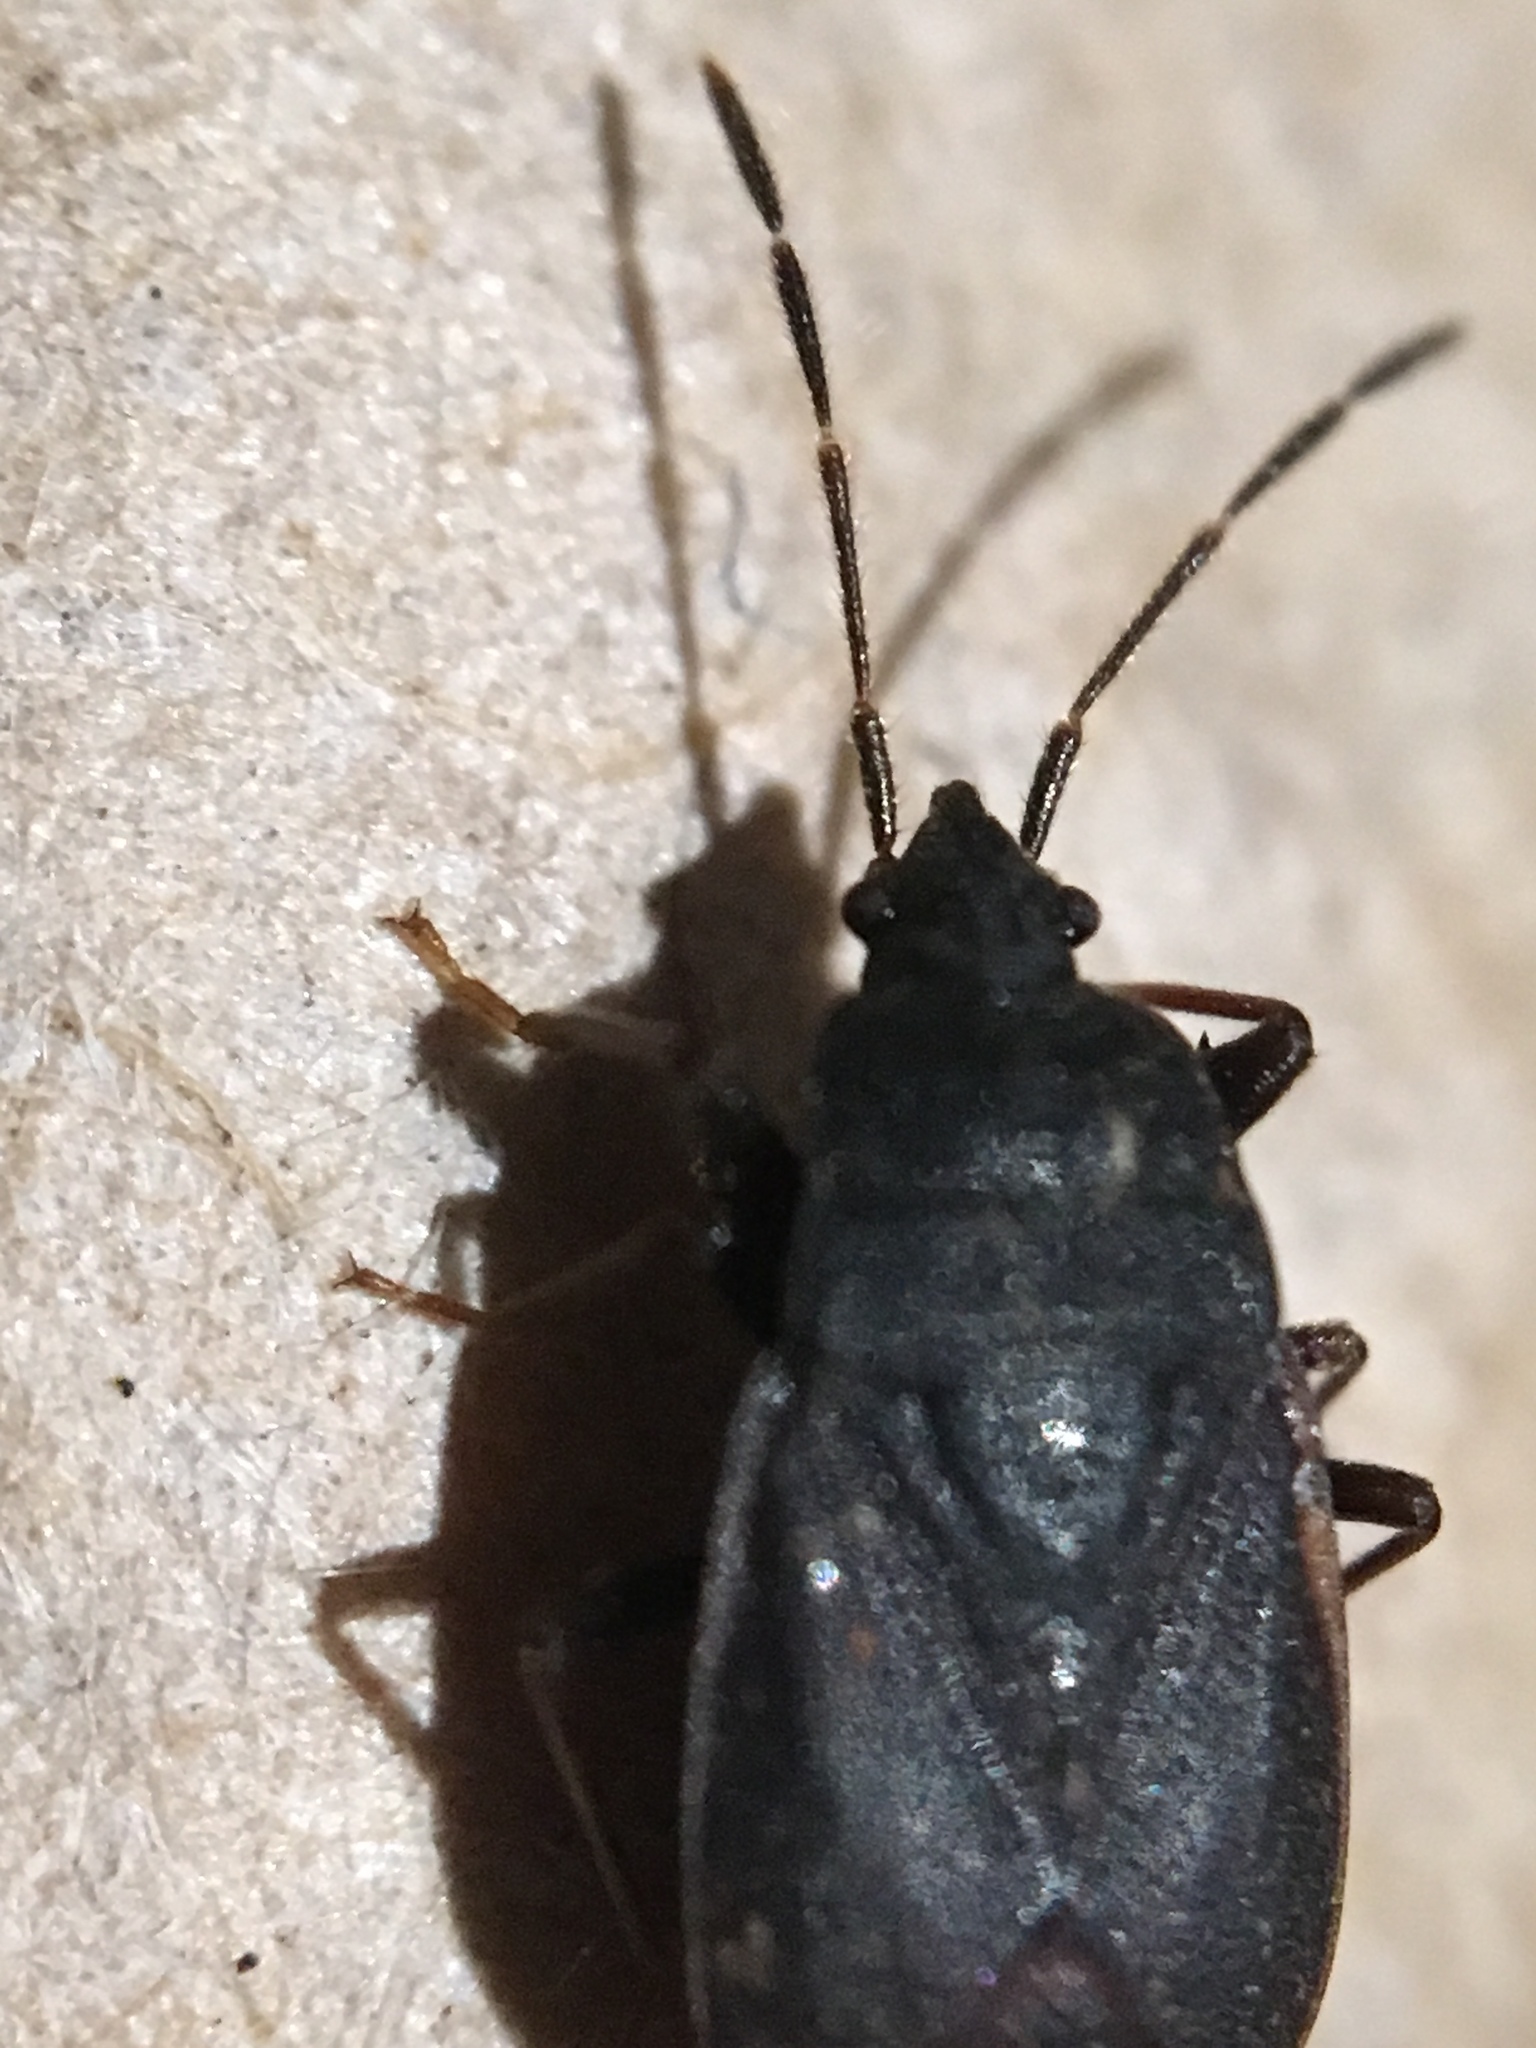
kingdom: Animalia
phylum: Arthropoda
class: Insecta
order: Hemiptera
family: Rhyparochromidae
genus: Drymus
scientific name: Drymus crassus
